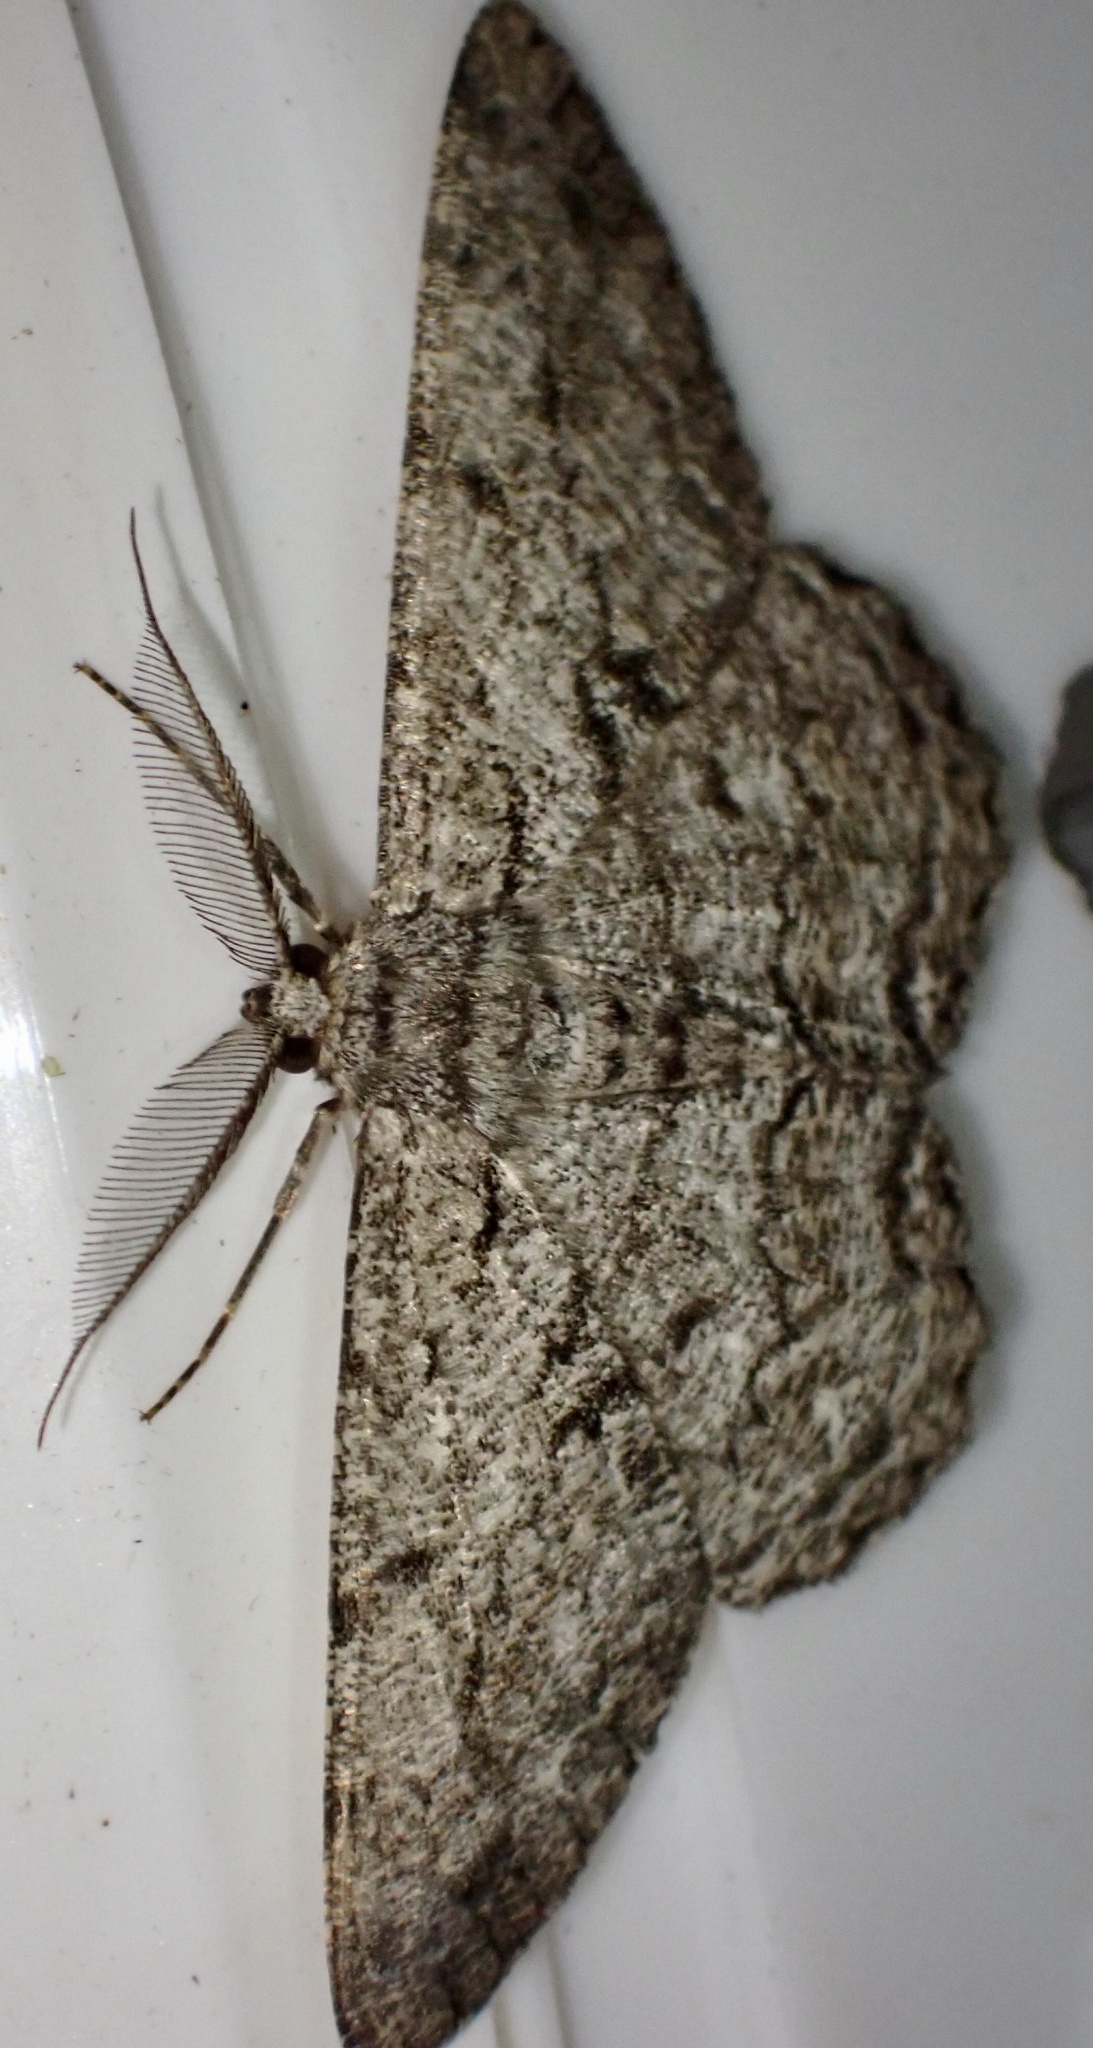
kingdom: Animalia
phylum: Arthropoda
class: Insecta
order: Lepidoptera
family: Geometridae
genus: Hypomecis
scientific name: Hypomecis roboraria
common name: Great oak beauty
